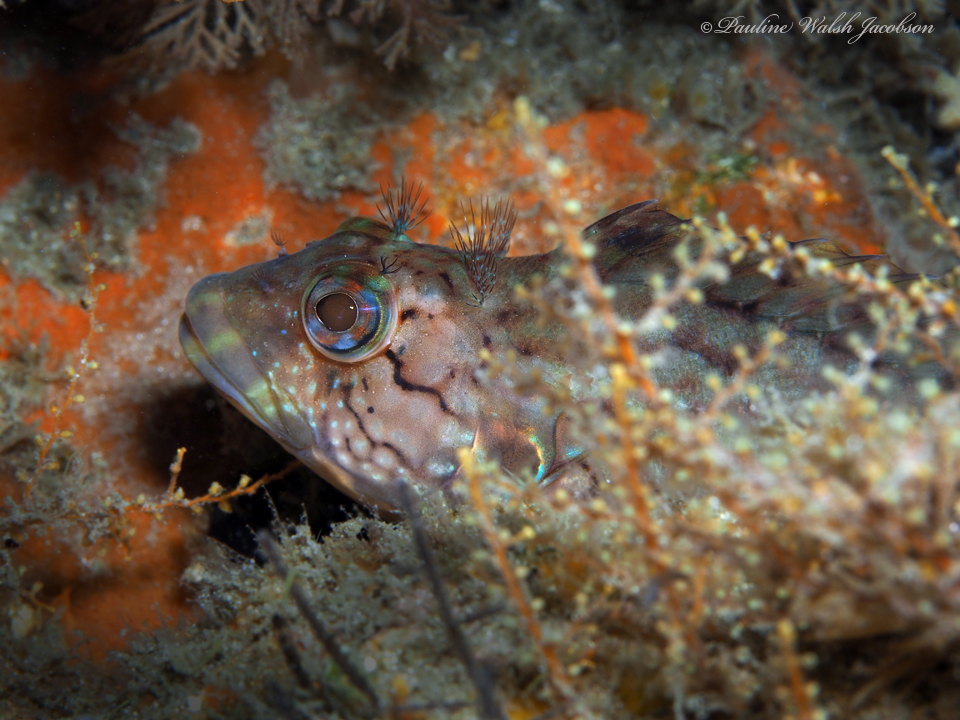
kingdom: Animalia
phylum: Chordata
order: Perciformes
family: Labrisomidae
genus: Labrisomus
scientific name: Labrisomus conditus
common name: Masquerader hairy blenny
